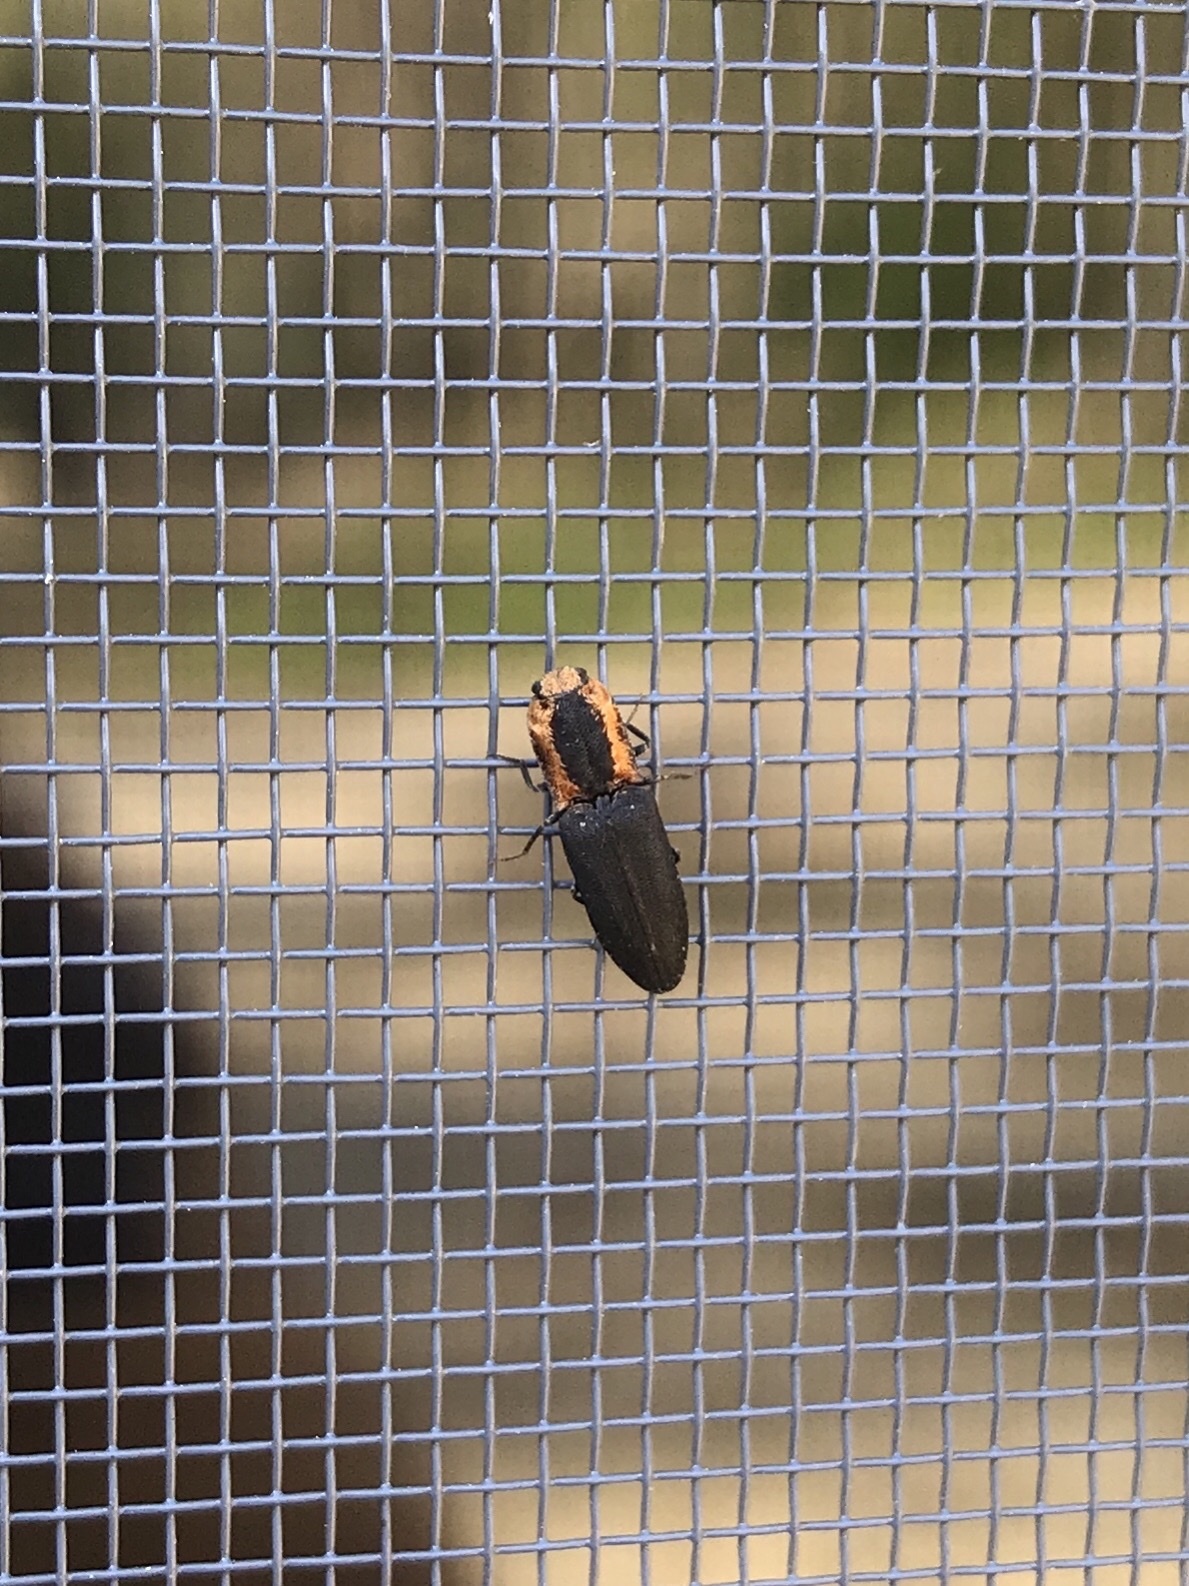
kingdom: Animalia
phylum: Arthropoda
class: Insecta
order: Coleoptera
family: Elateridae
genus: Lacon
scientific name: Lacon discoideus
